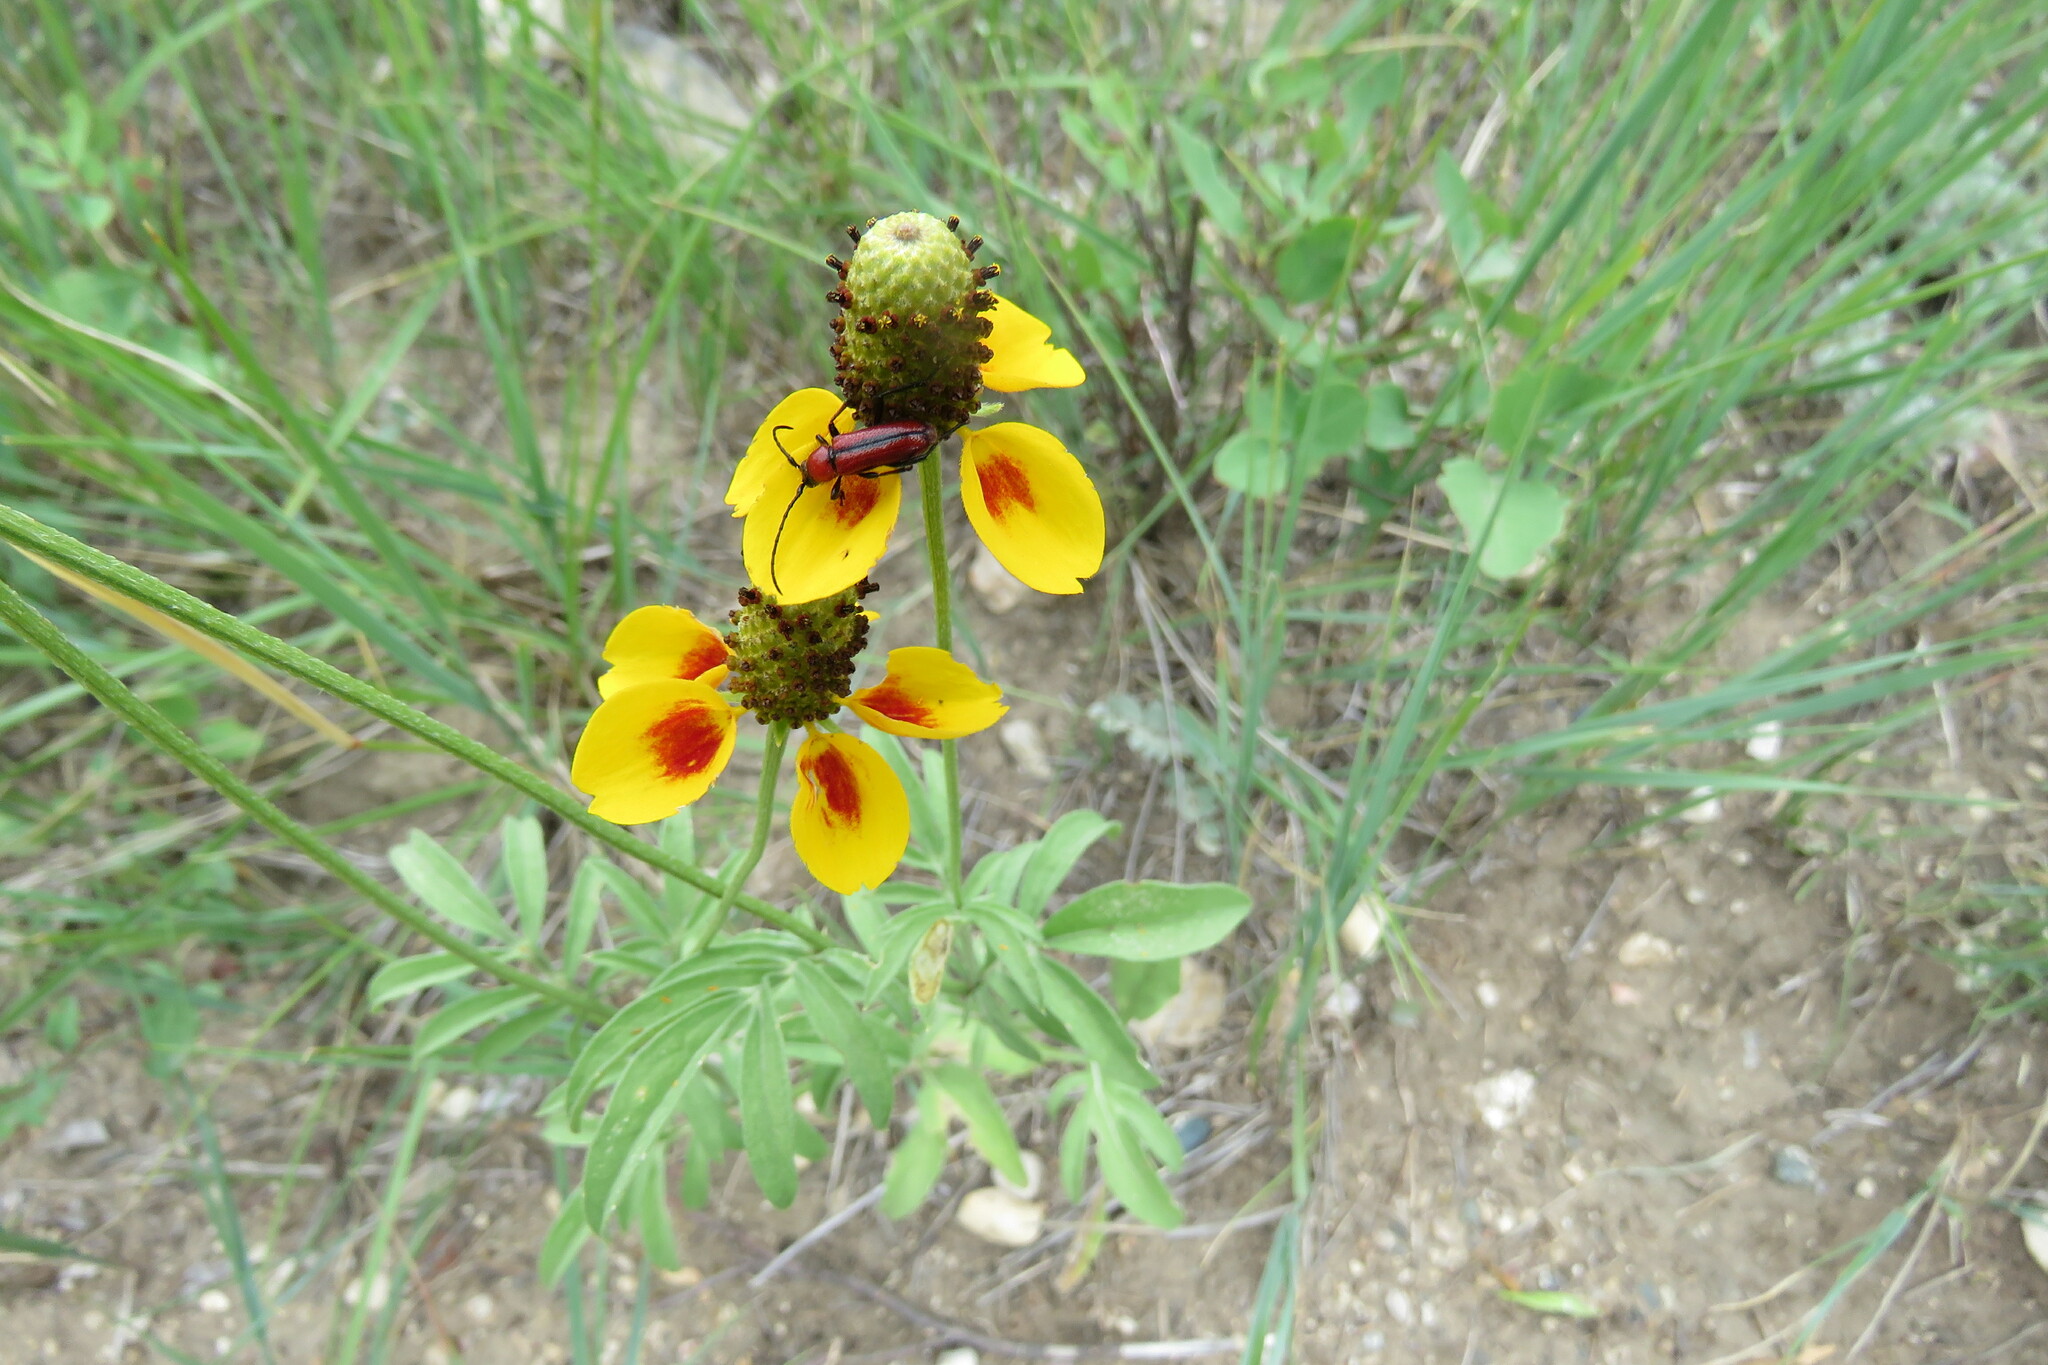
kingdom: Animalia
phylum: Arthropoda
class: Insecta
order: Coleoptera
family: Cerambycidae
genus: Batyle
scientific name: Batyle suturalis
